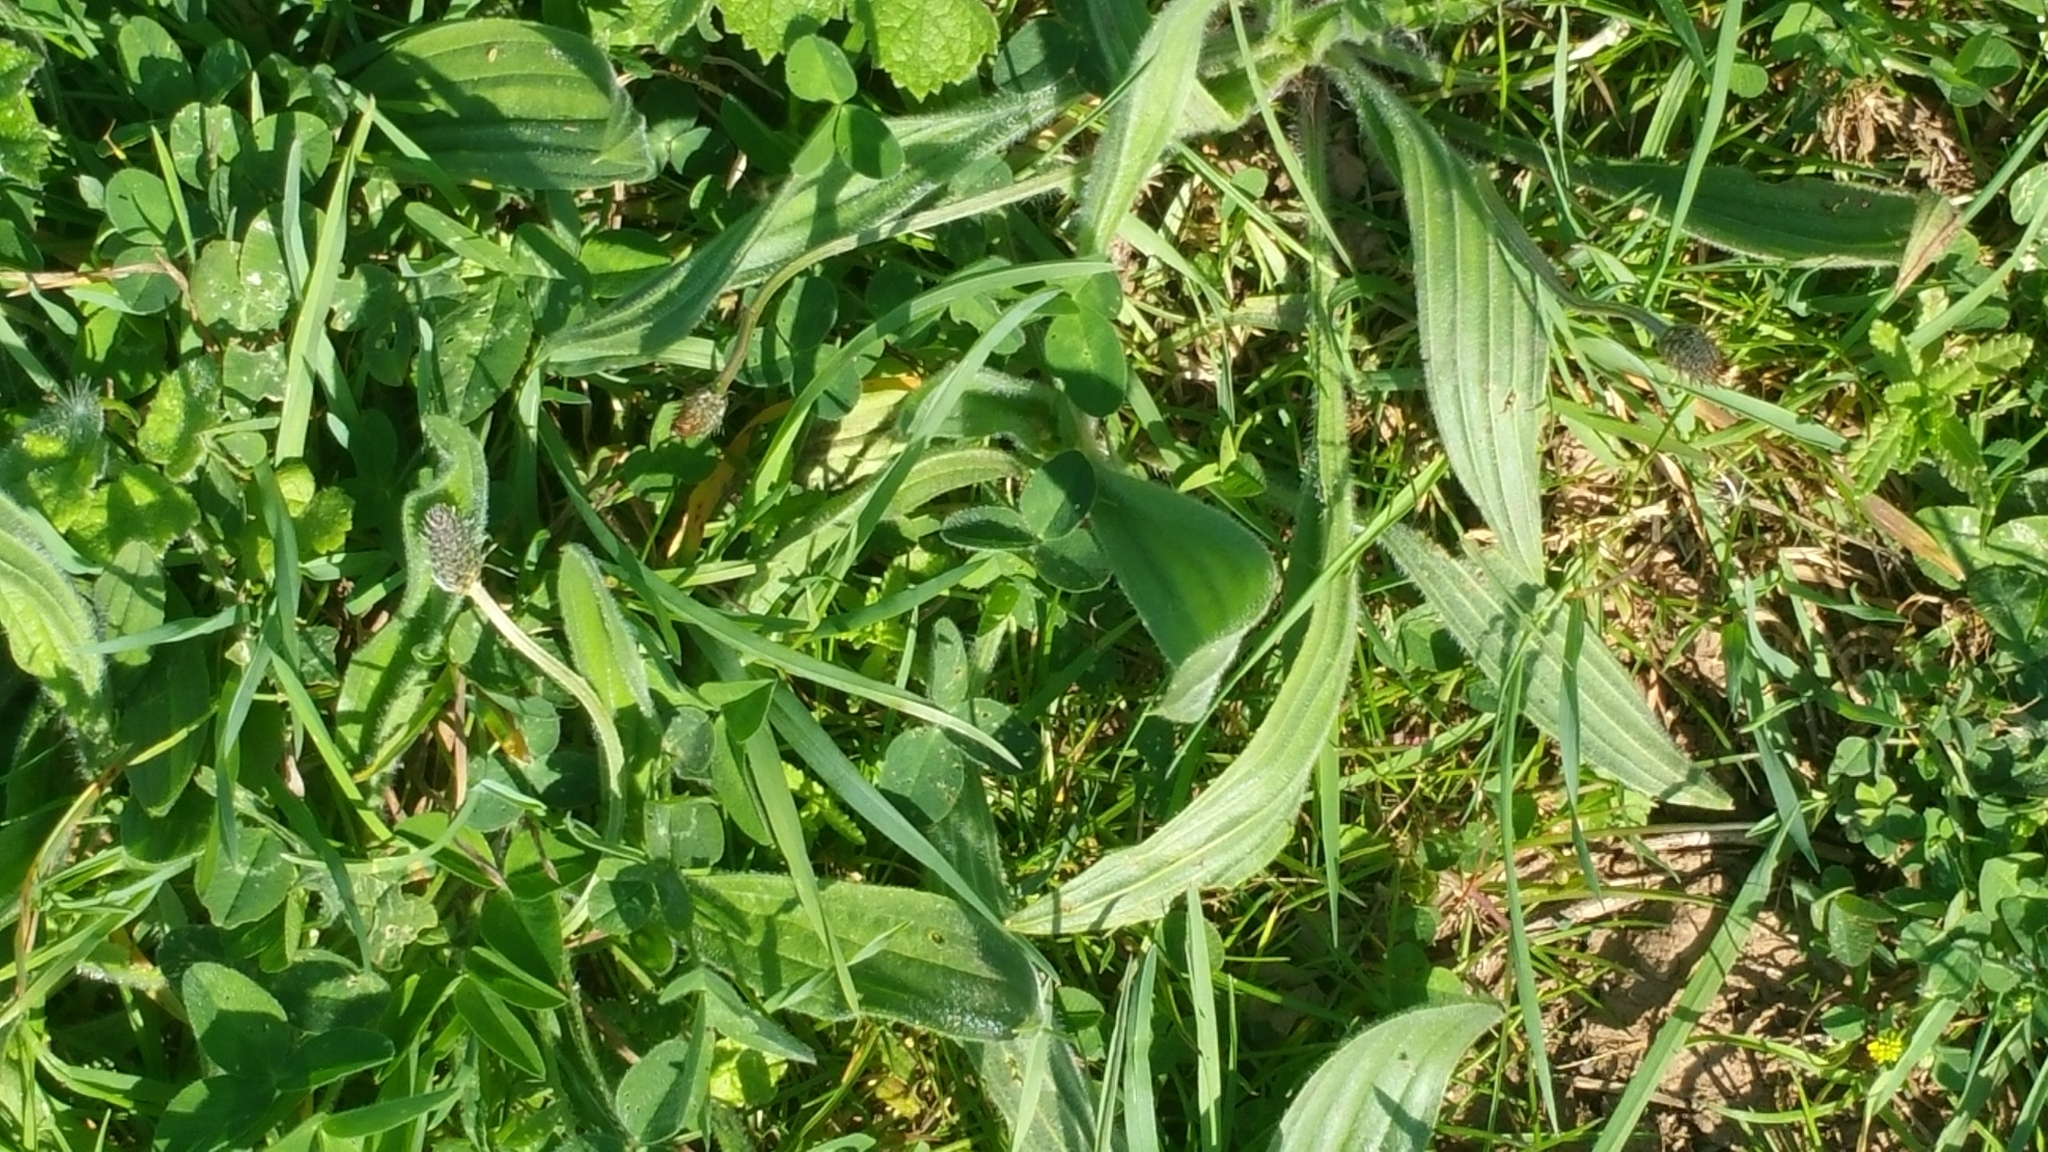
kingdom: Plantae
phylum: Tracheophyta
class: Magnoliopsida
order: Lamiales
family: Plantaginaceae
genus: Plantago
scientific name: Plantago lanceolata
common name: Ribwort plantain
